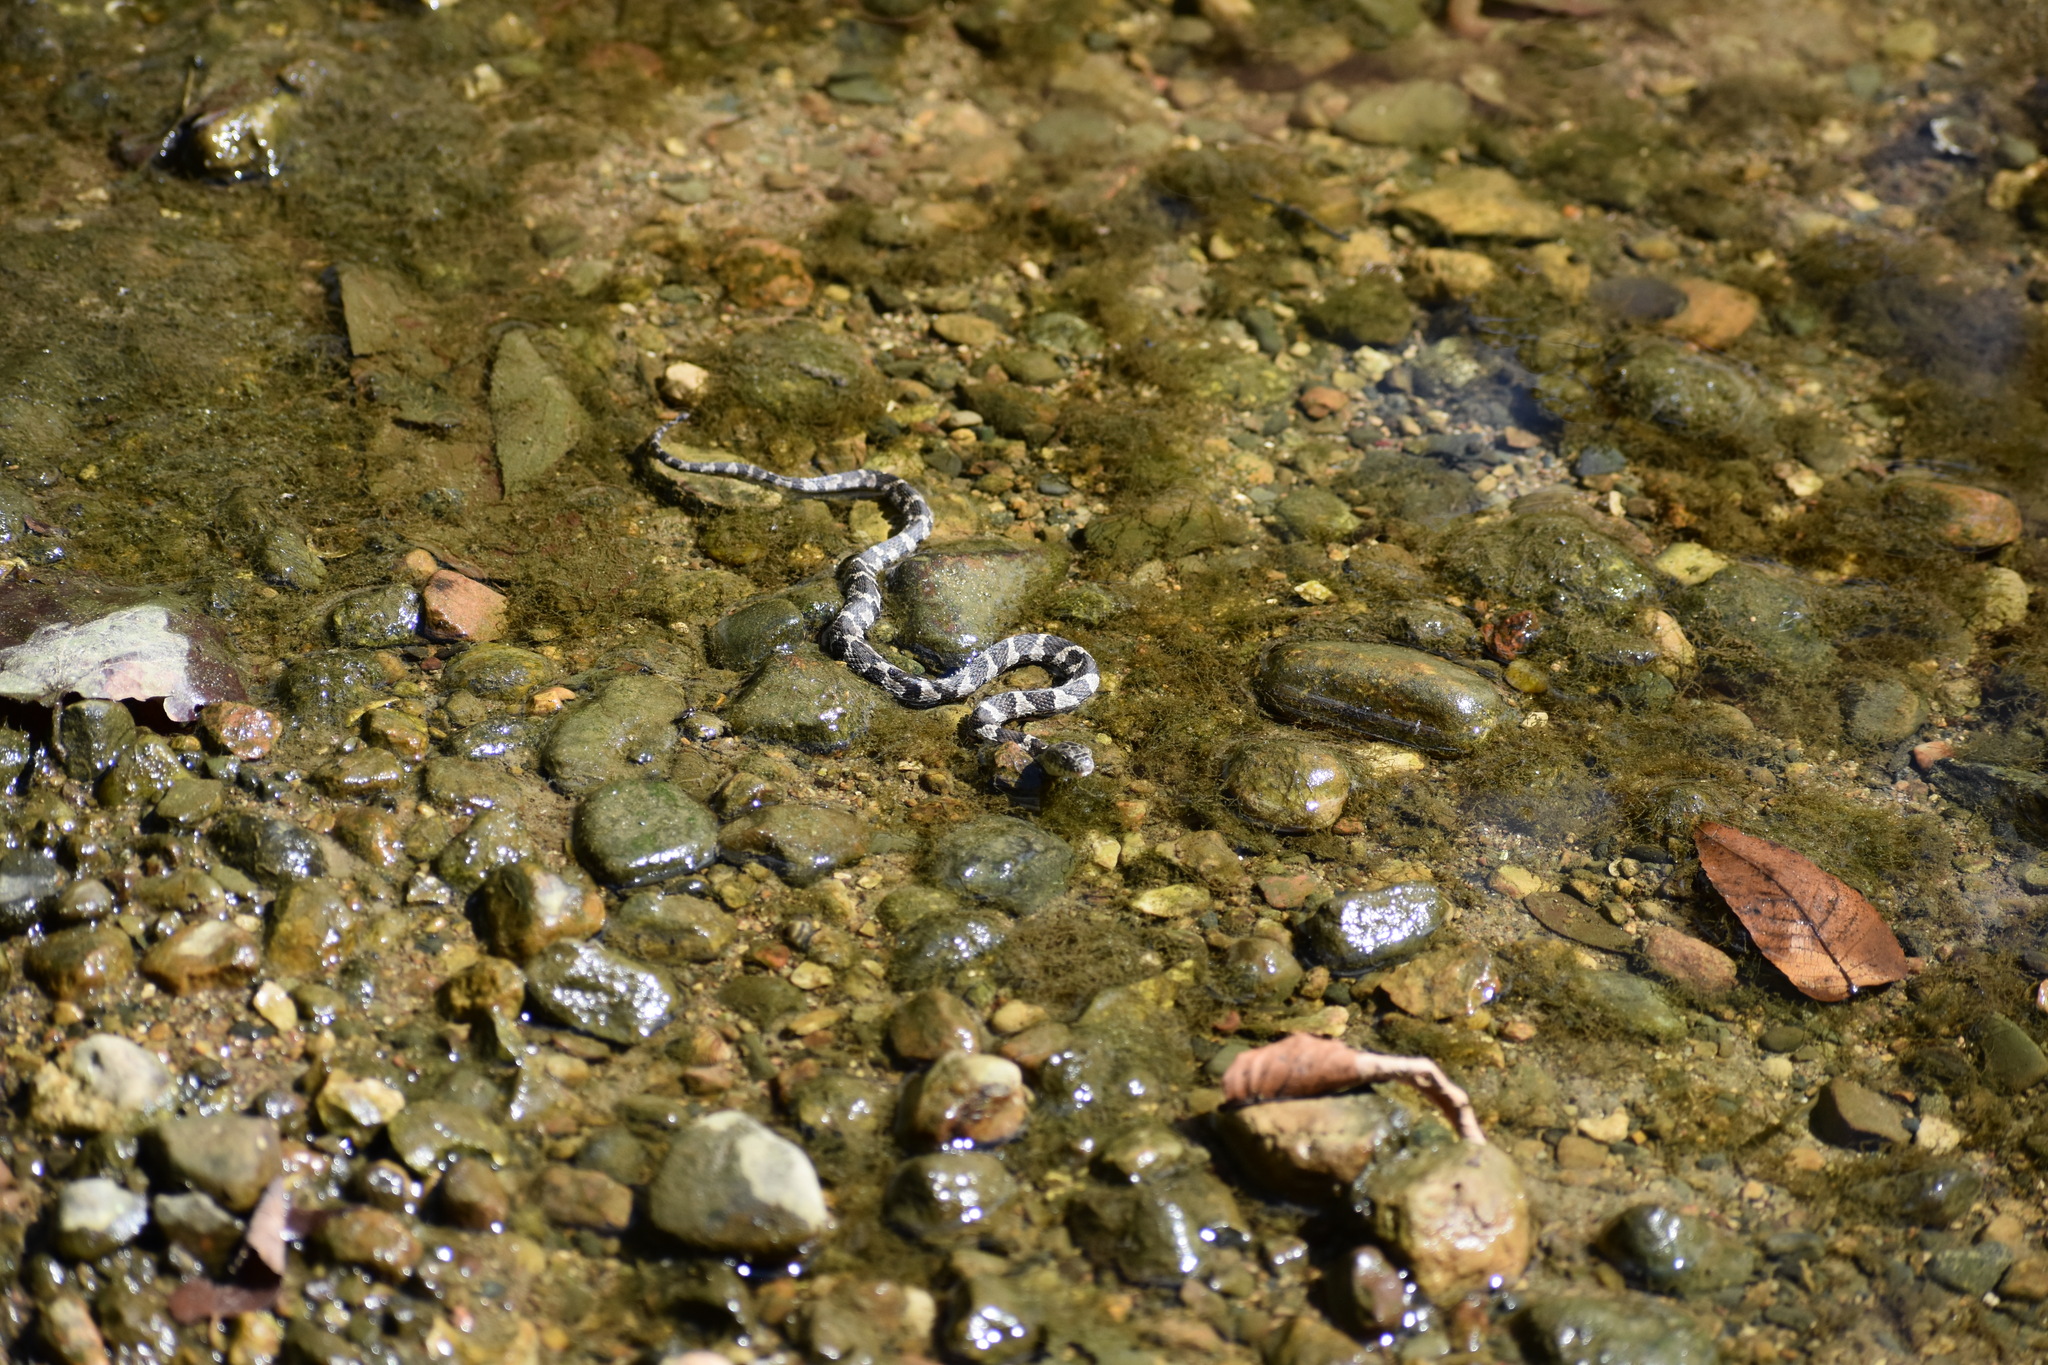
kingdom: Animalia
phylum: Chordata
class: Squamata
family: Colubridae
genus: Nerodia
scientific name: Nerodia sipedon
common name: Northern water snake
